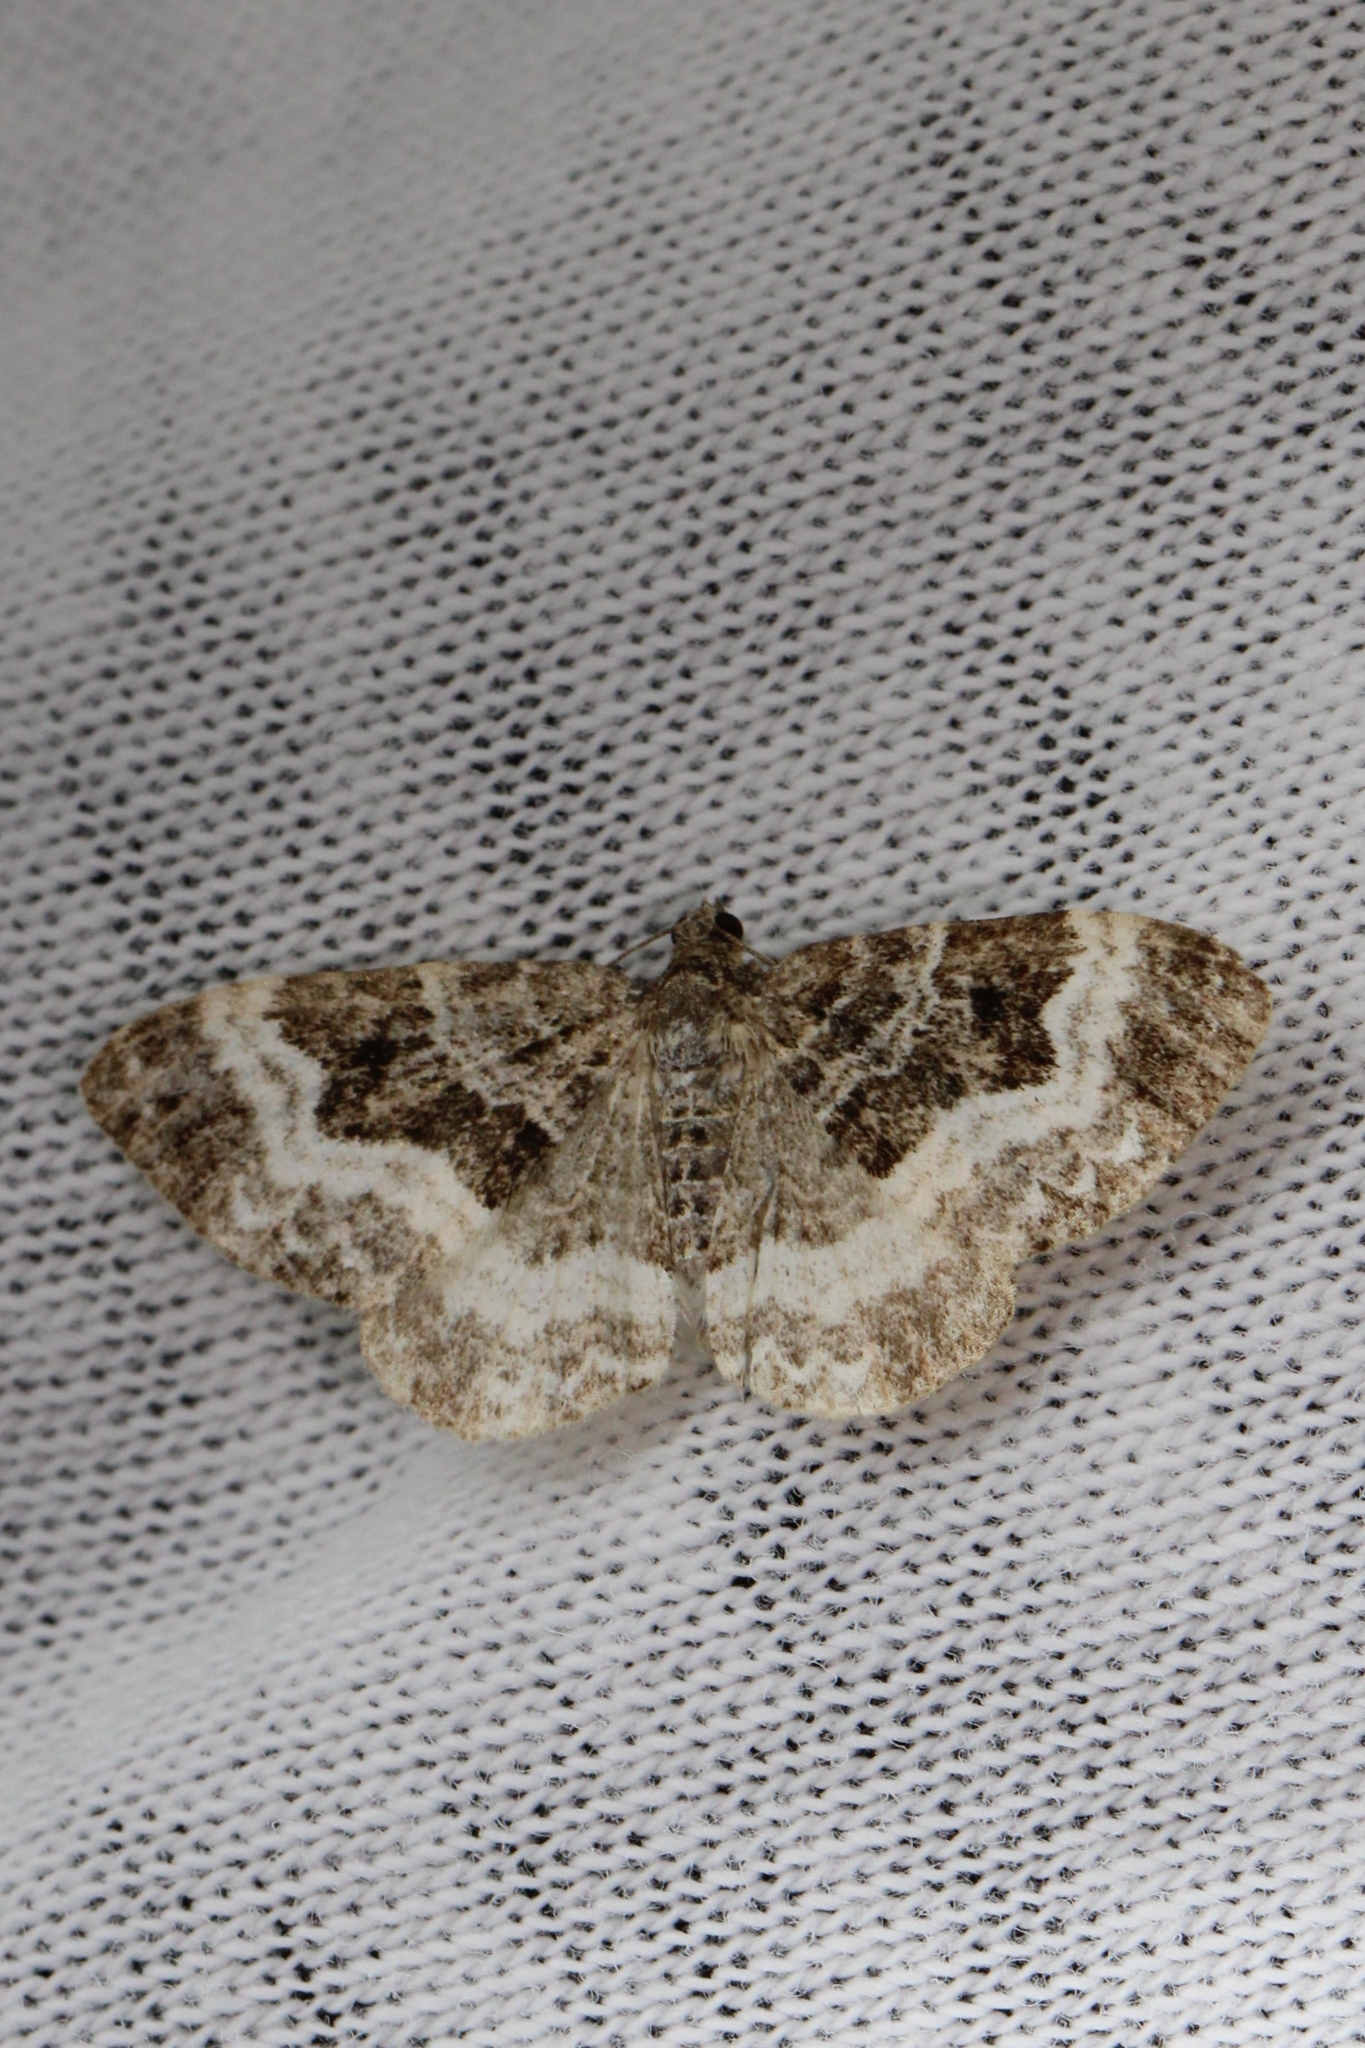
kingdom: Animalia
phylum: Arthropoda
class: Insecta
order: Lepidoptera
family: Geometridae
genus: Epirrhoe
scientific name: Epirrhoe alternata
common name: Common carpet
